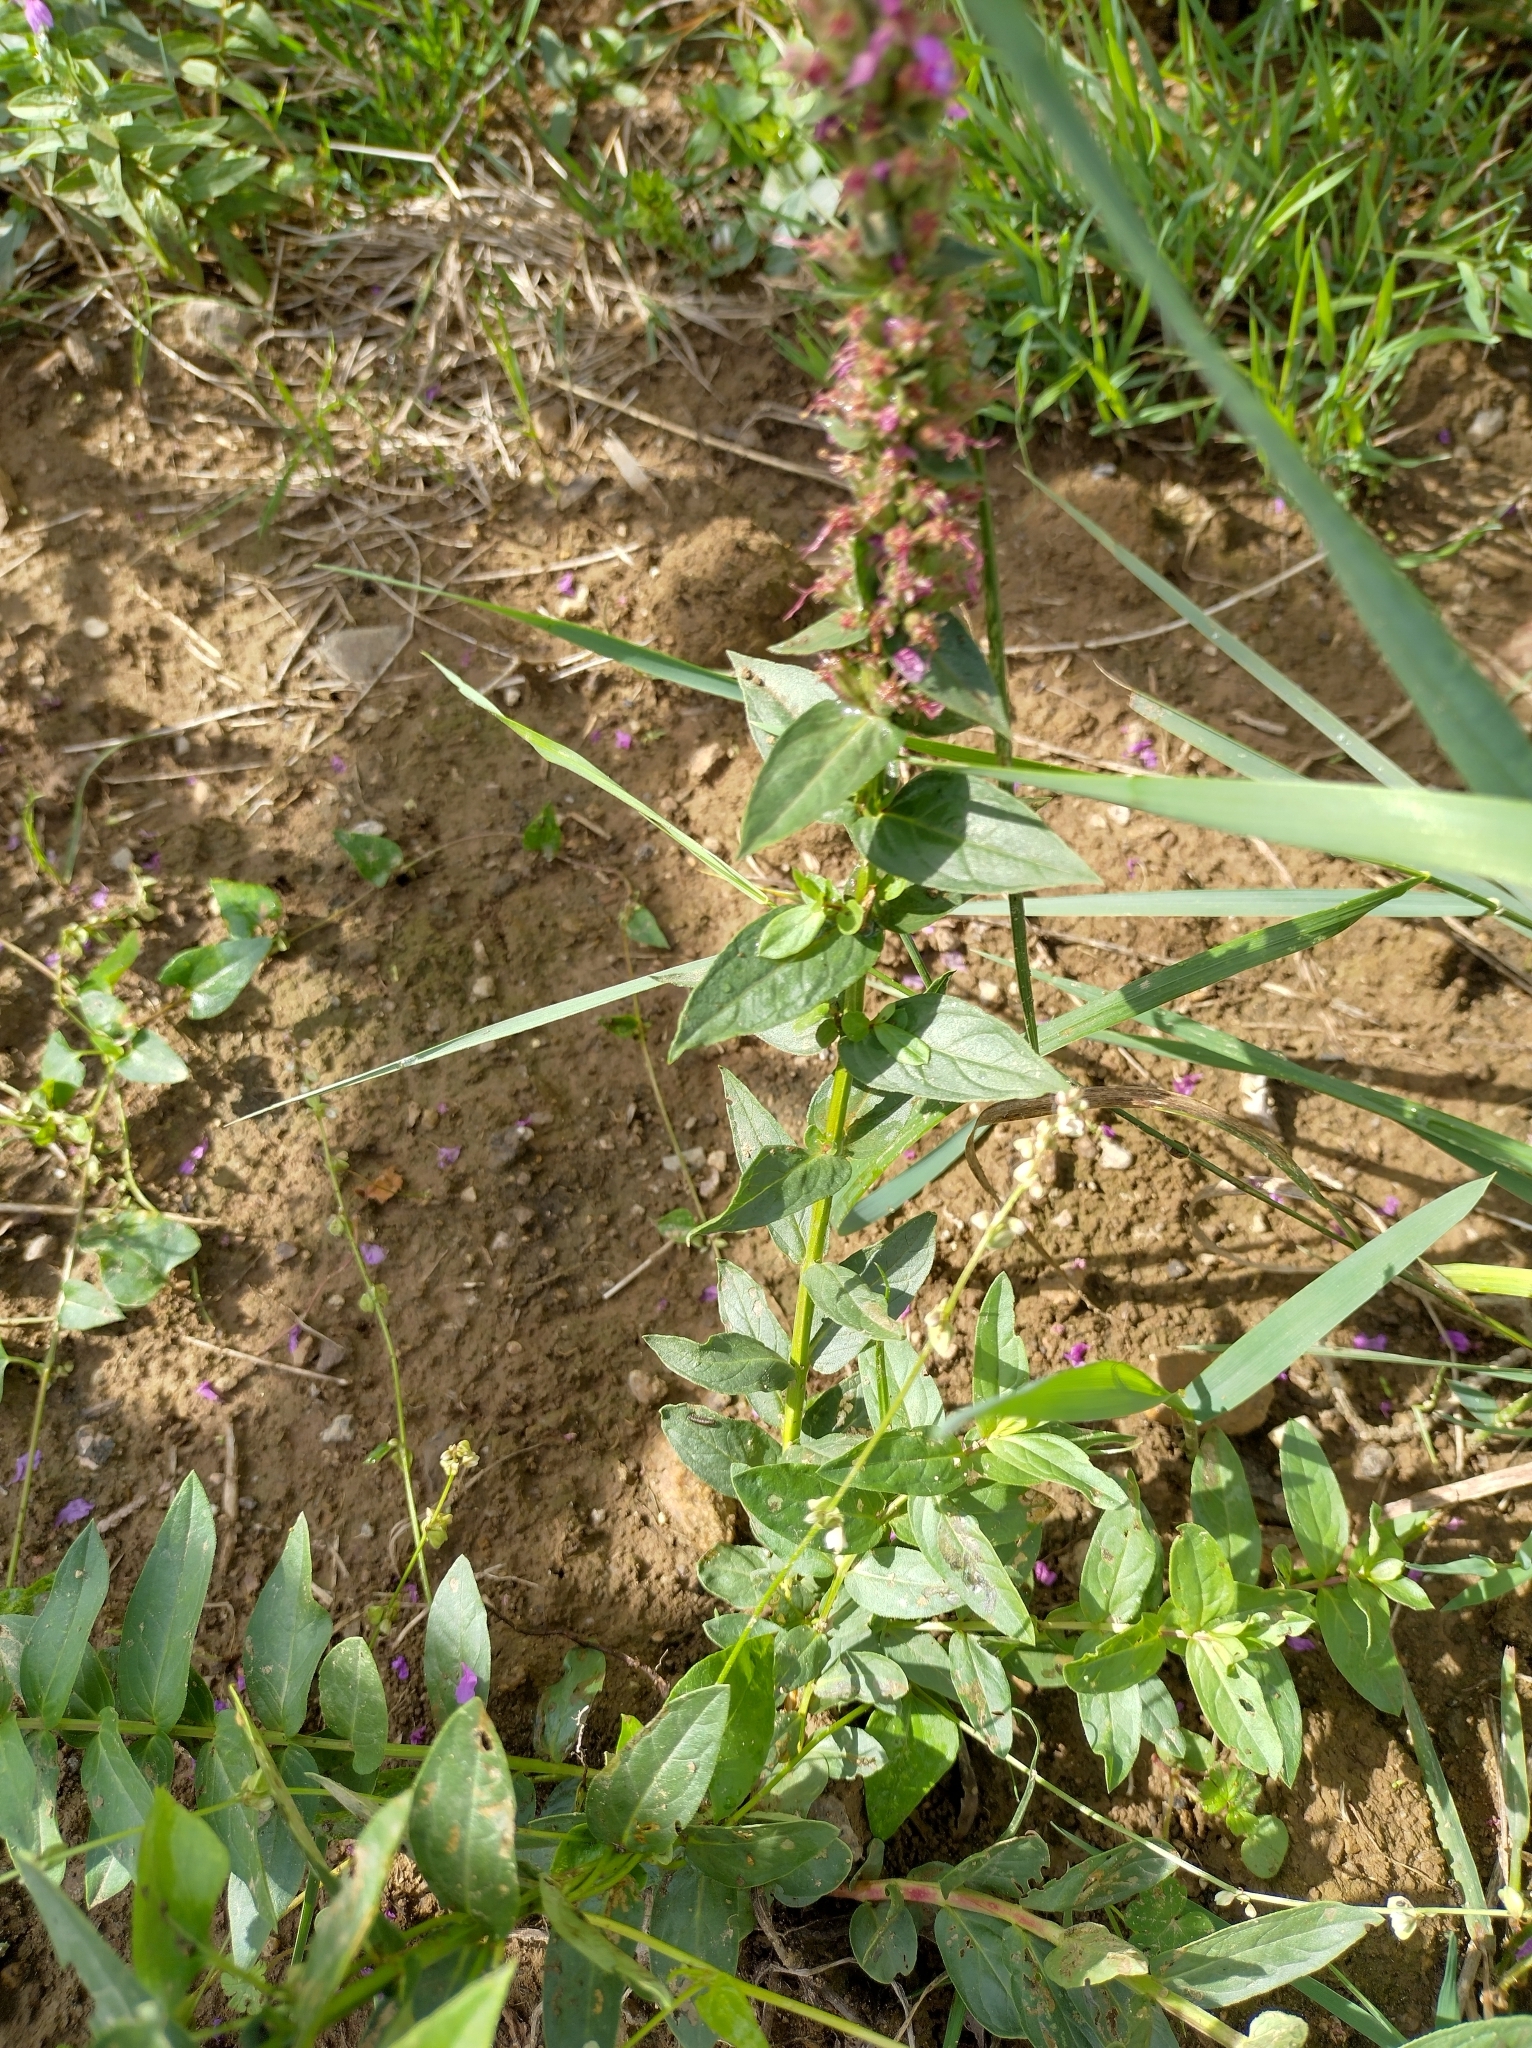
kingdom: Plantae
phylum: Tracheophyta
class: Magnoliopsida
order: Myrtales
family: Lythraceae
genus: Lythrum
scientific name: Lythrum salicaria
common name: Purple loosestrife
